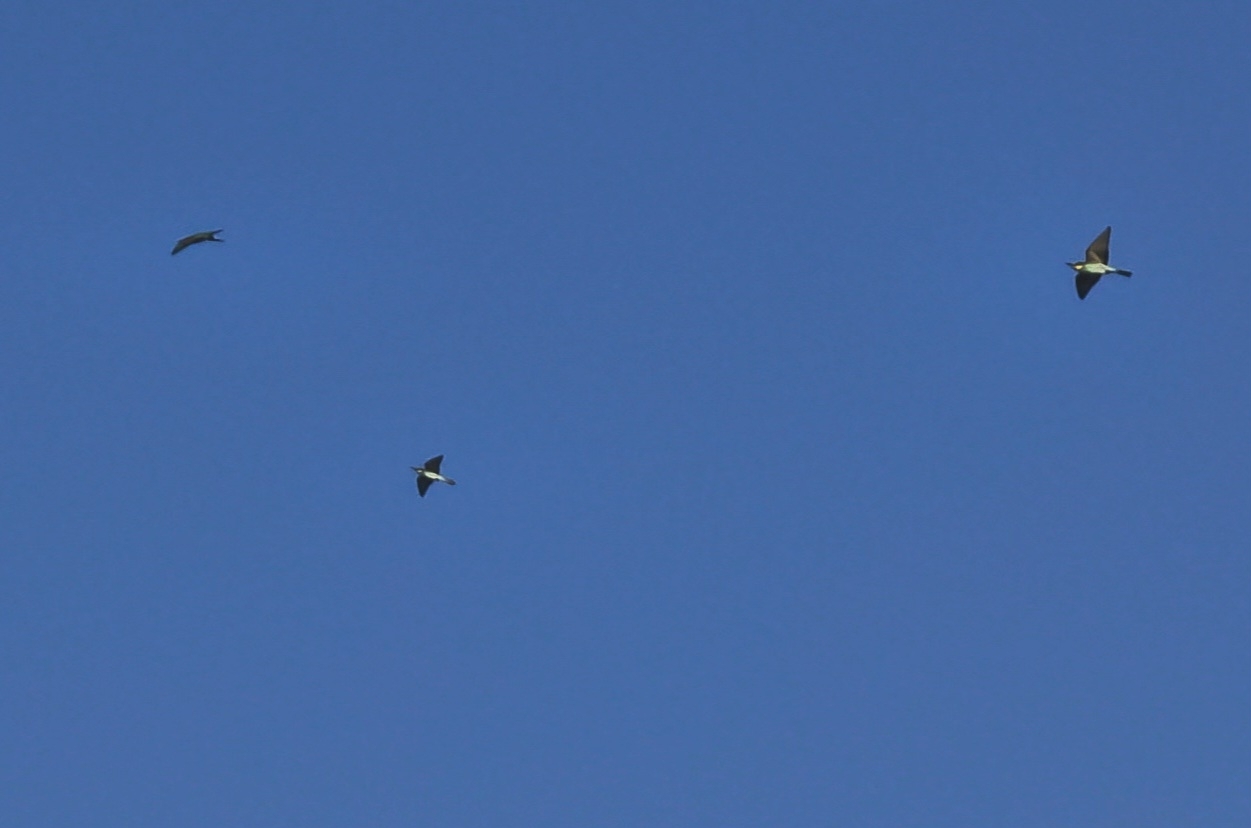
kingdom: Animalia
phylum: Chordata
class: Aves
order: Coraciiformes
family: Meropidae
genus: Merops
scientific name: Merops apiaster
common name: European bee-eater
